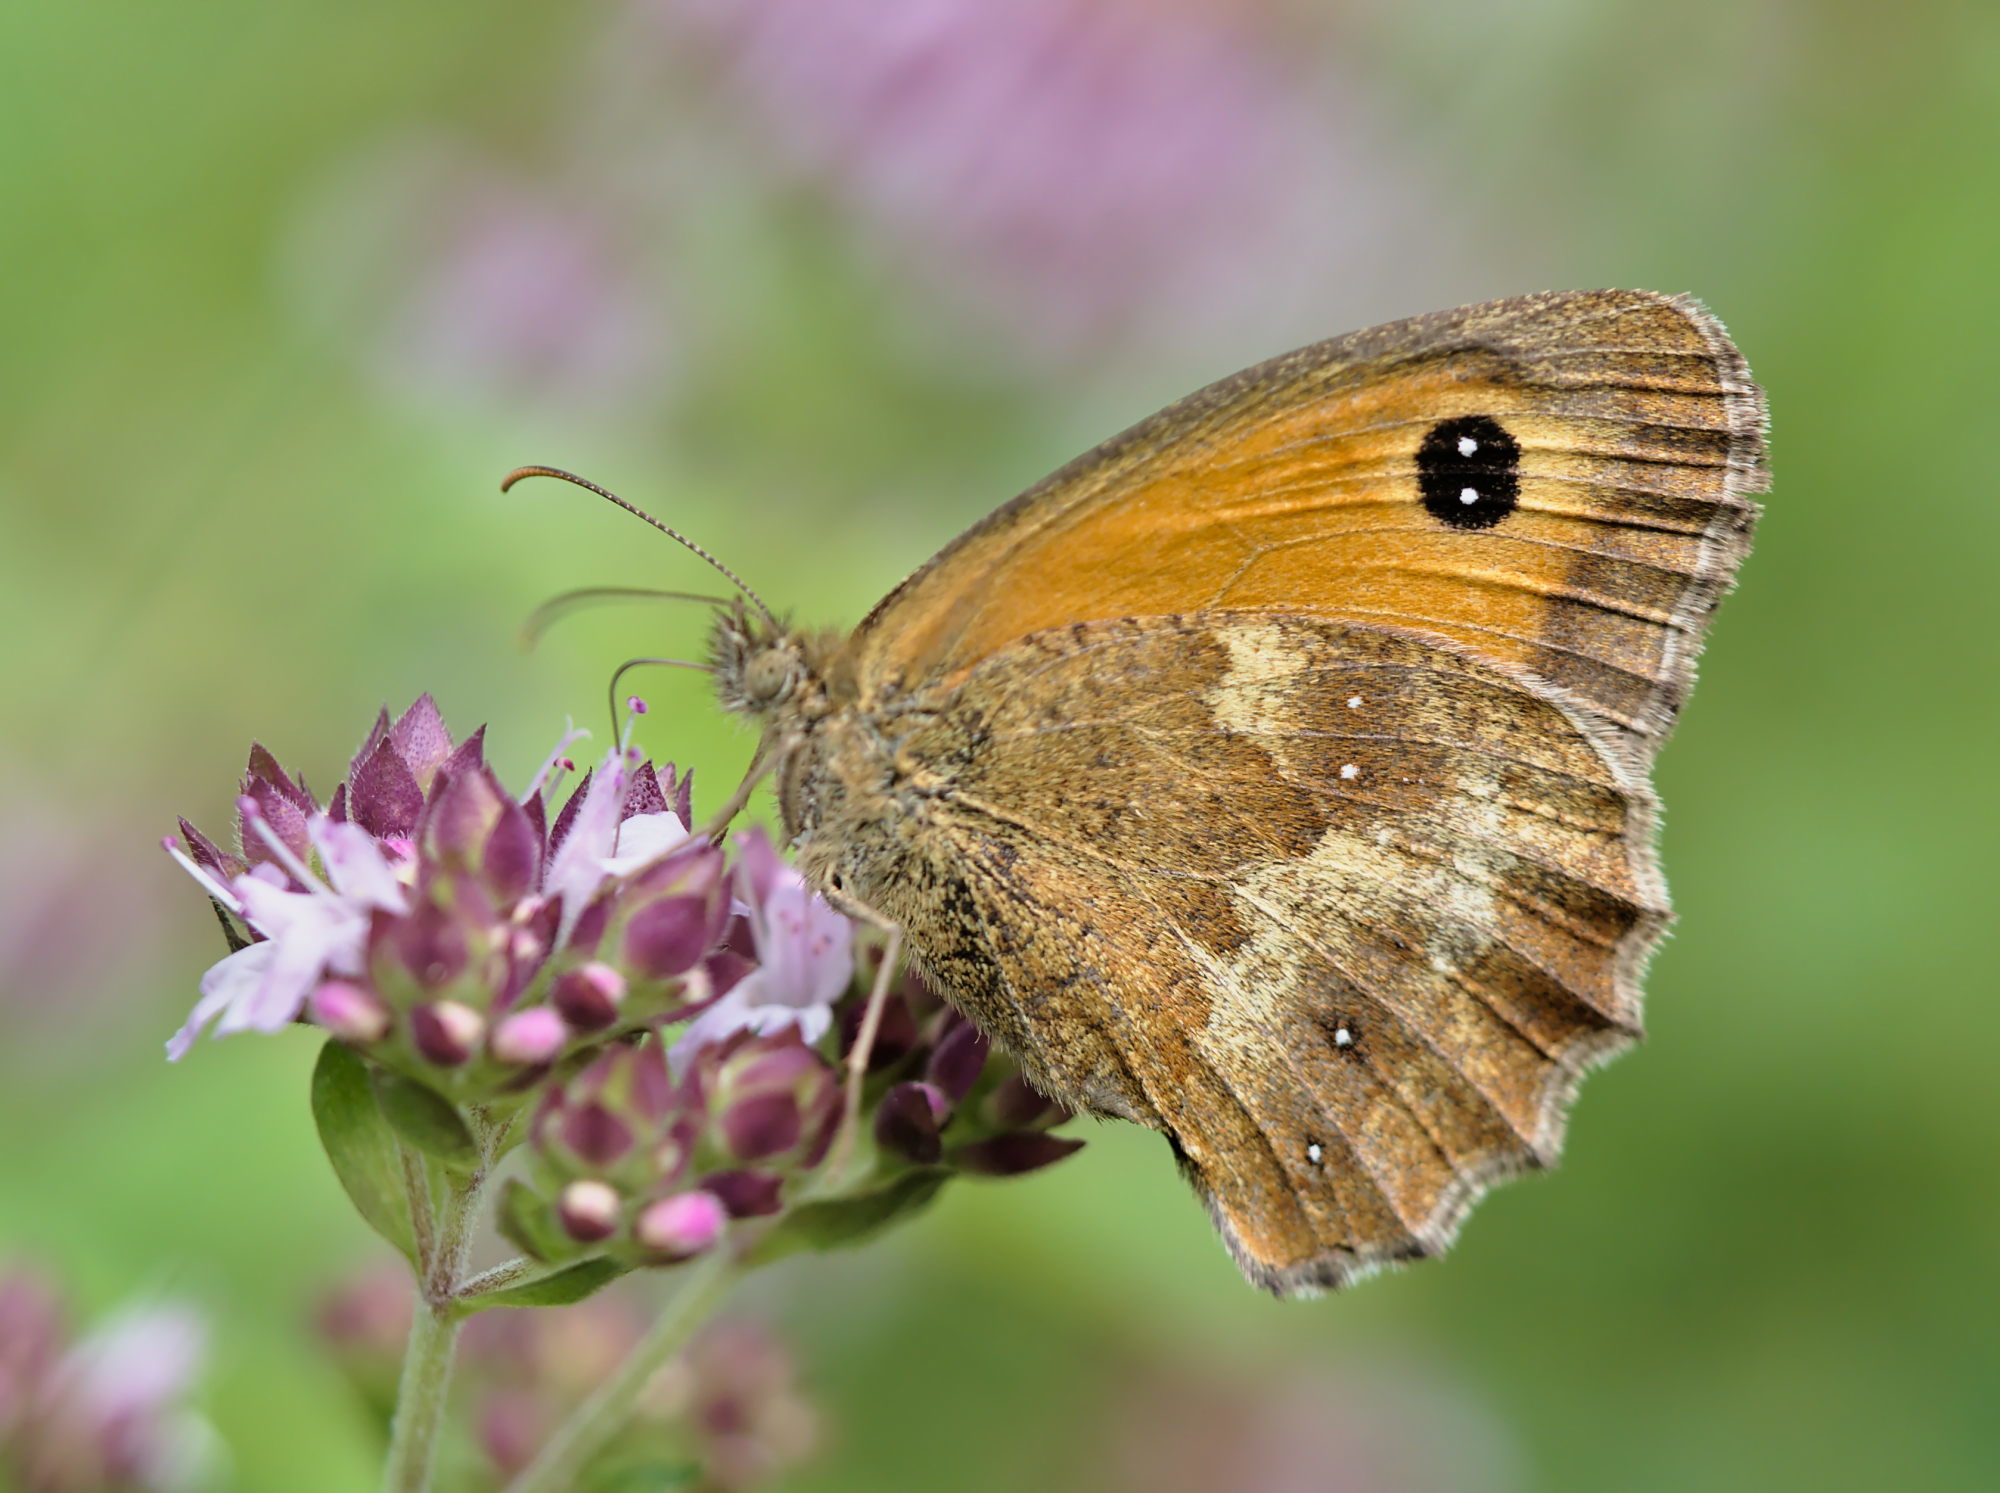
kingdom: Animalia
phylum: Arthropoda
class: Insecta
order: Lepidoptera
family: Nymphalidae
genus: Pyronia
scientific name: Pyronia tithonus
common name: Gatekeeper
